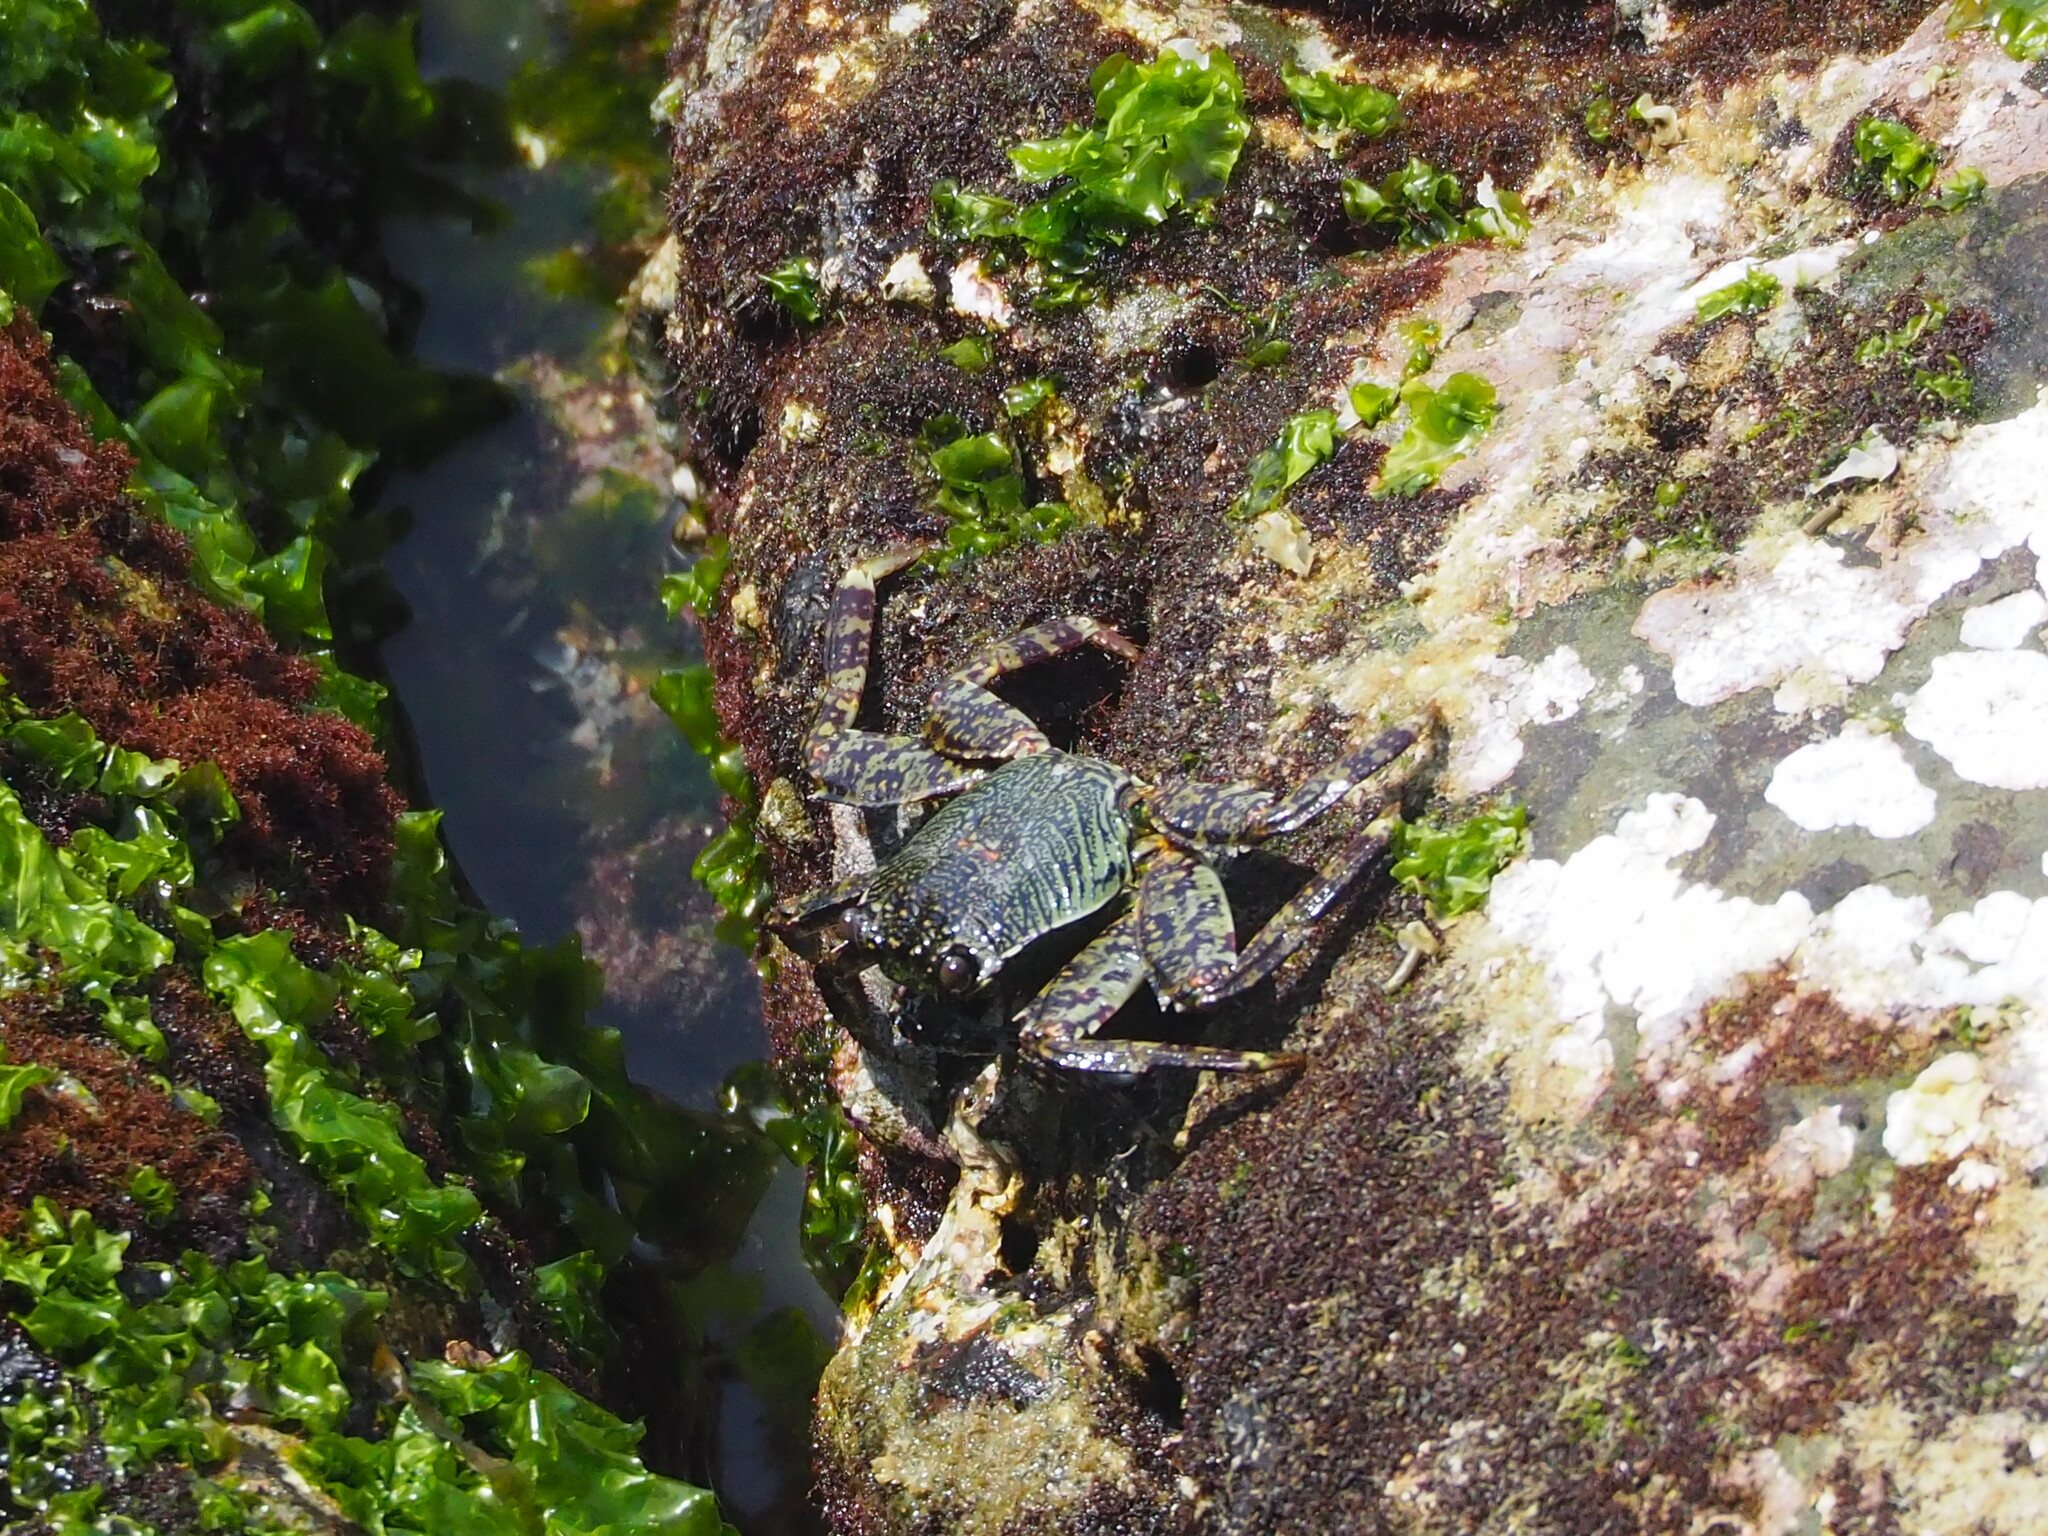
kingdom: Animalia
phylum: Arthropoda
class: Malacostraca
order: Decapoda
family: Grapsidae
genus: Grapsus
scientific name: Grapsus albolineatus
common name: Mottled lightfoot crab
